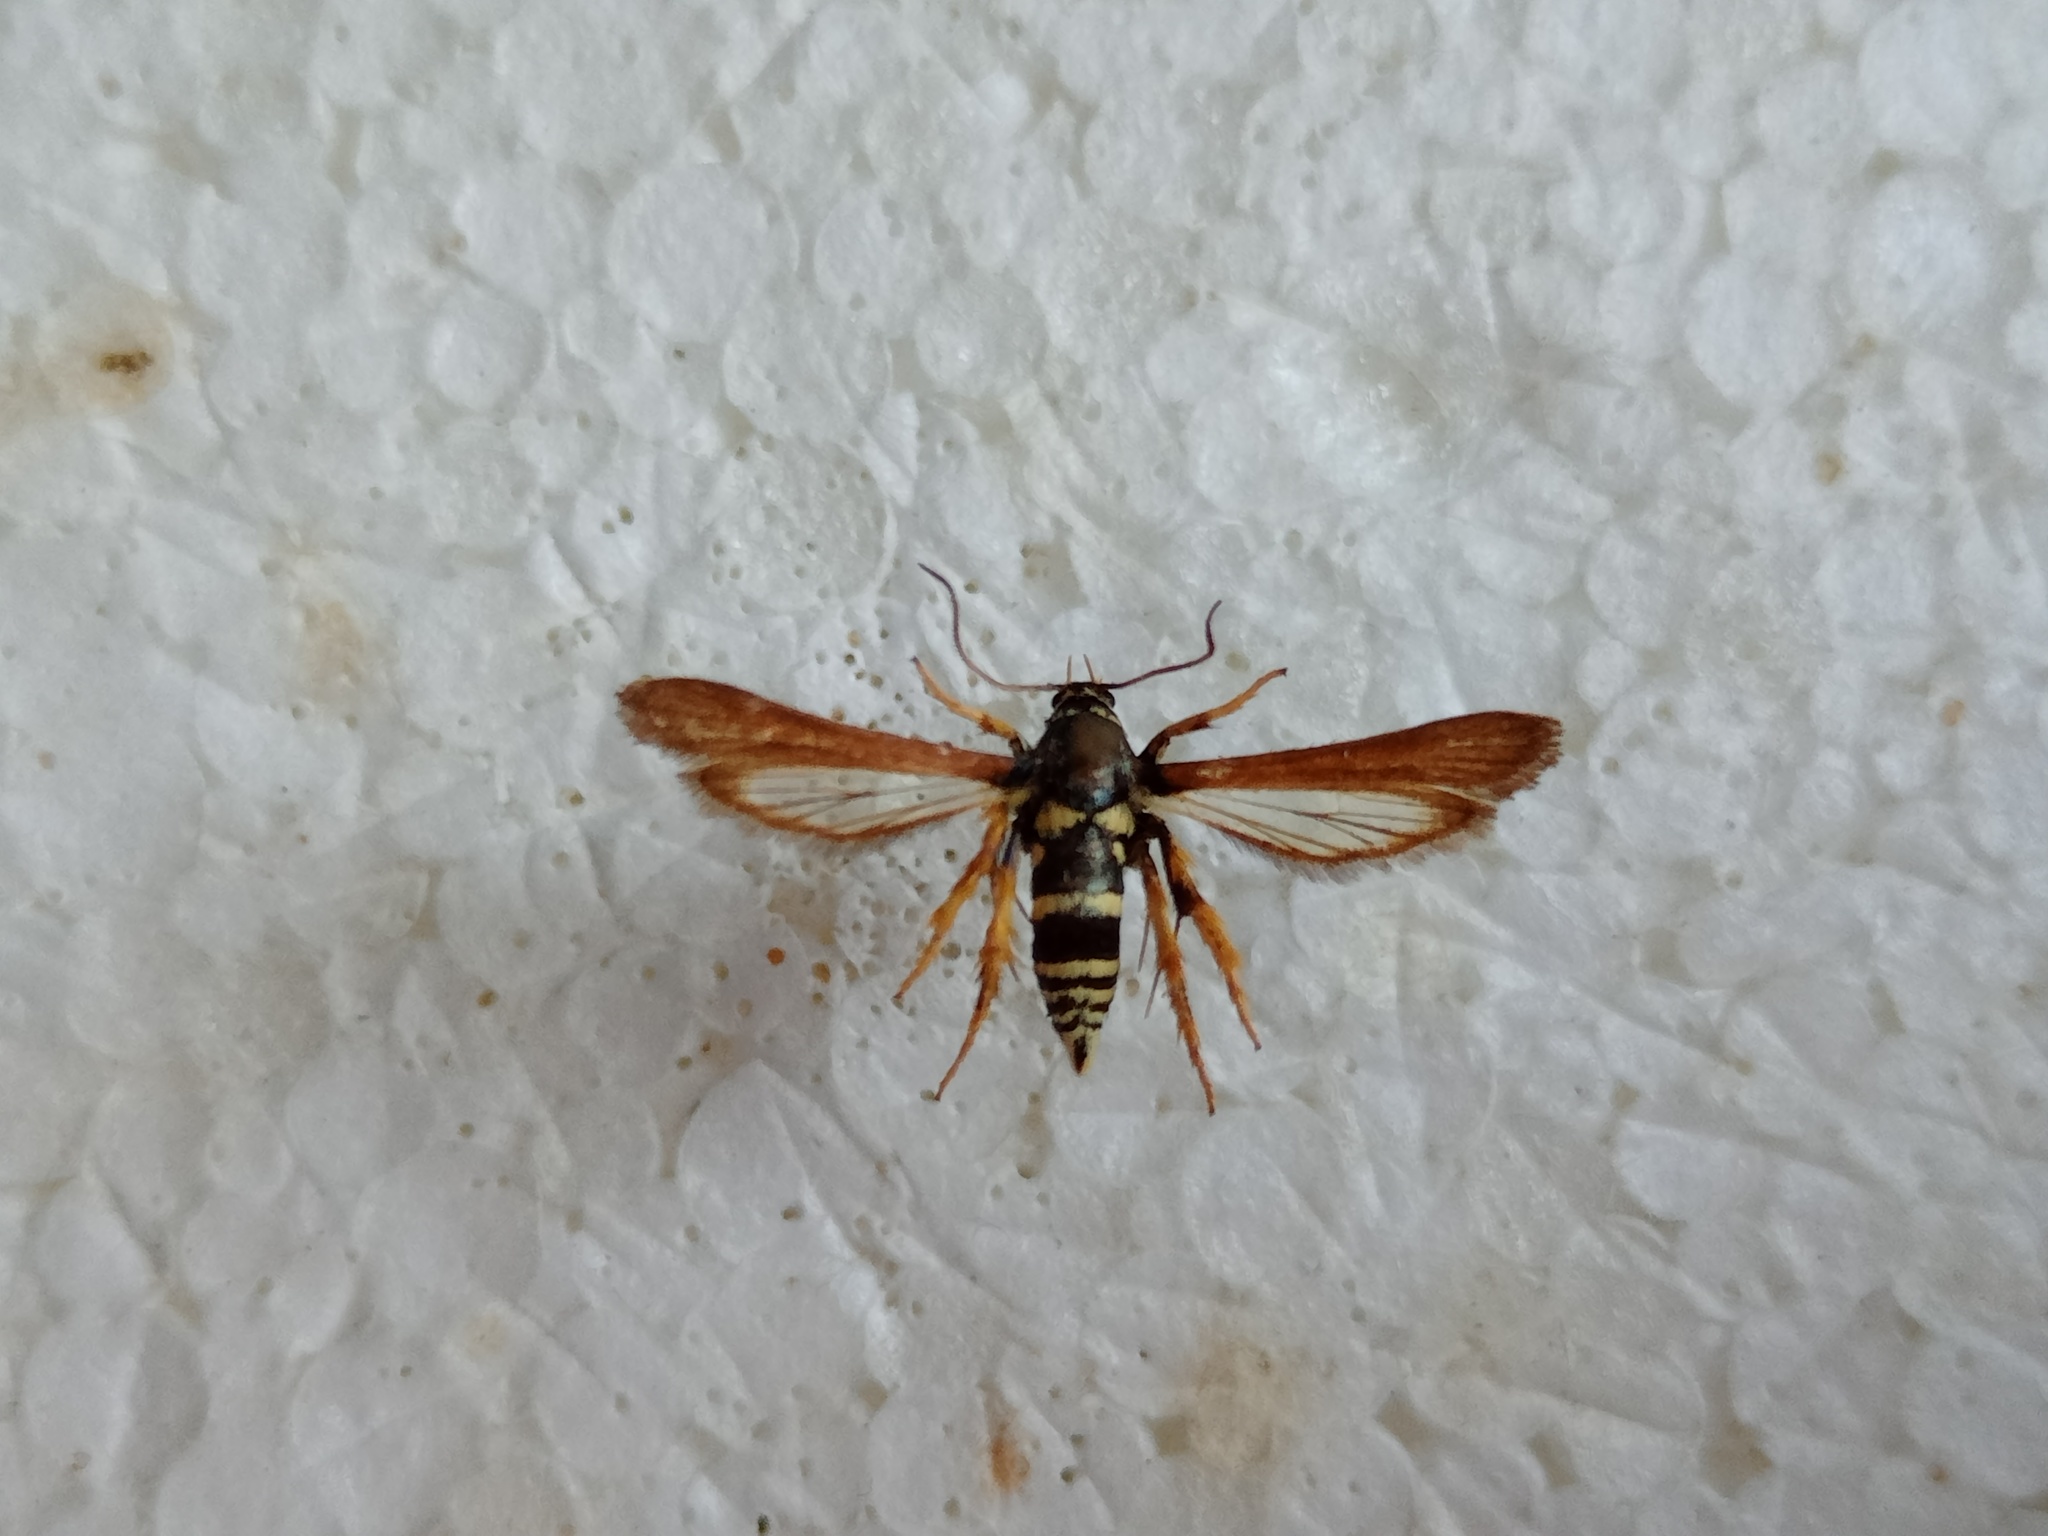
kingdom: Animalia
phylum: Arthropoda
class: Insecta
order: Lepidoptera
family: Sesiidae
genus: Negotinthia
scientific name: Negotinthia hoplisiformis
